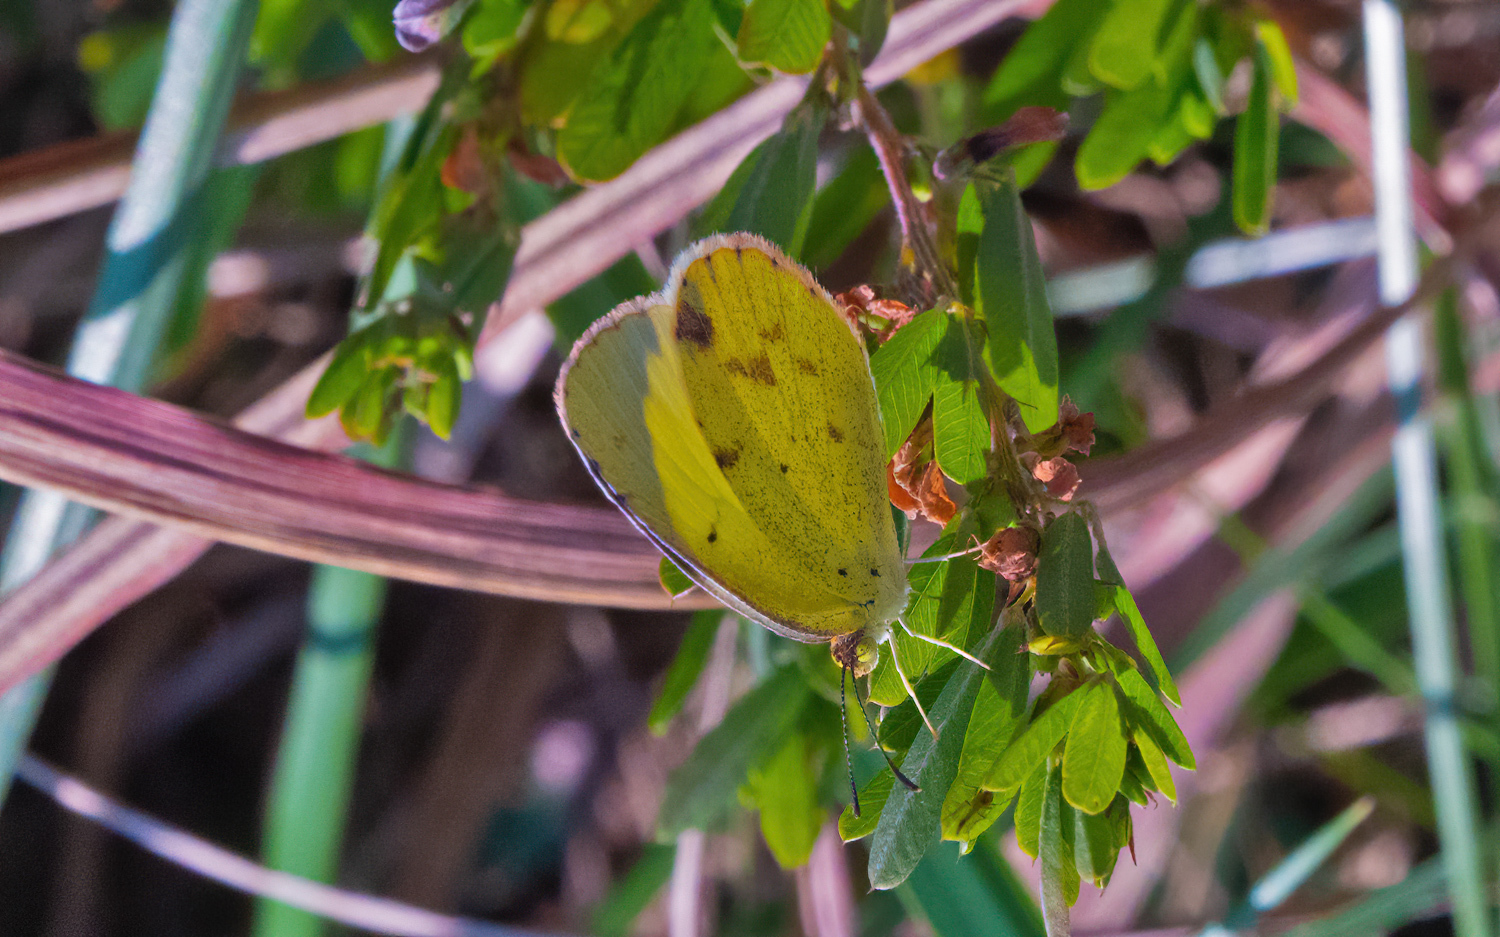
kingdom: Animalia
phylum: Arthropoda
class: Insecta
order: Lepidoptera
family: Pieridae
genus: Pyrisitia
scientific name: Pyrisitia lisa
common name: Little yellow
